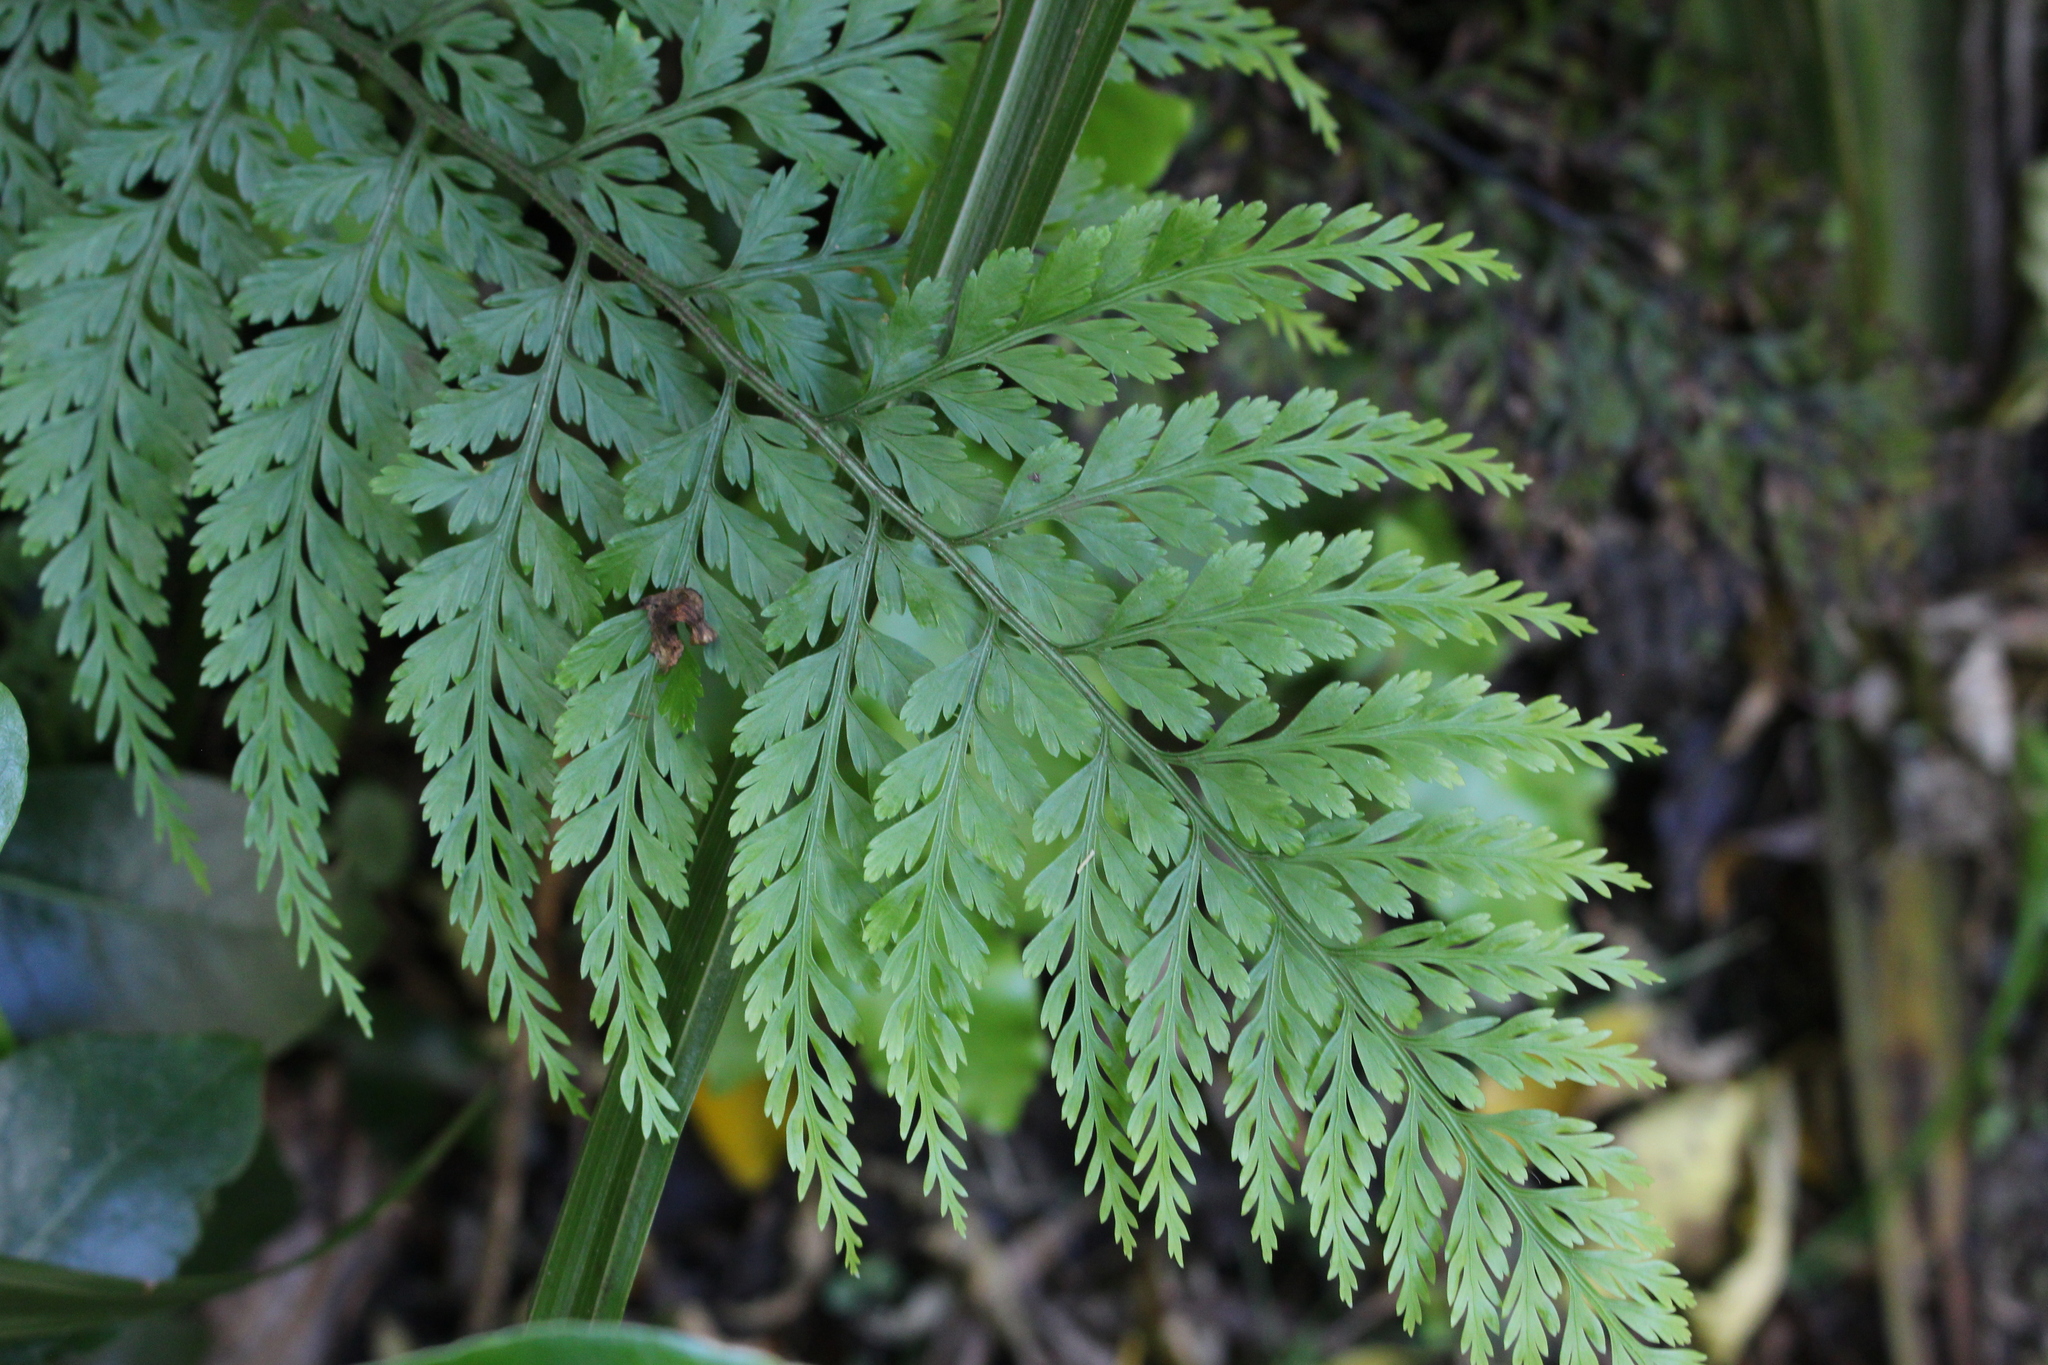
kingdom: Plantae
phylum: Tracheophyta
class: Polypodiopsida
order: Polypodiales
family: Aspleniaceae
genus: Asplenium
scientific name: Asplenium
